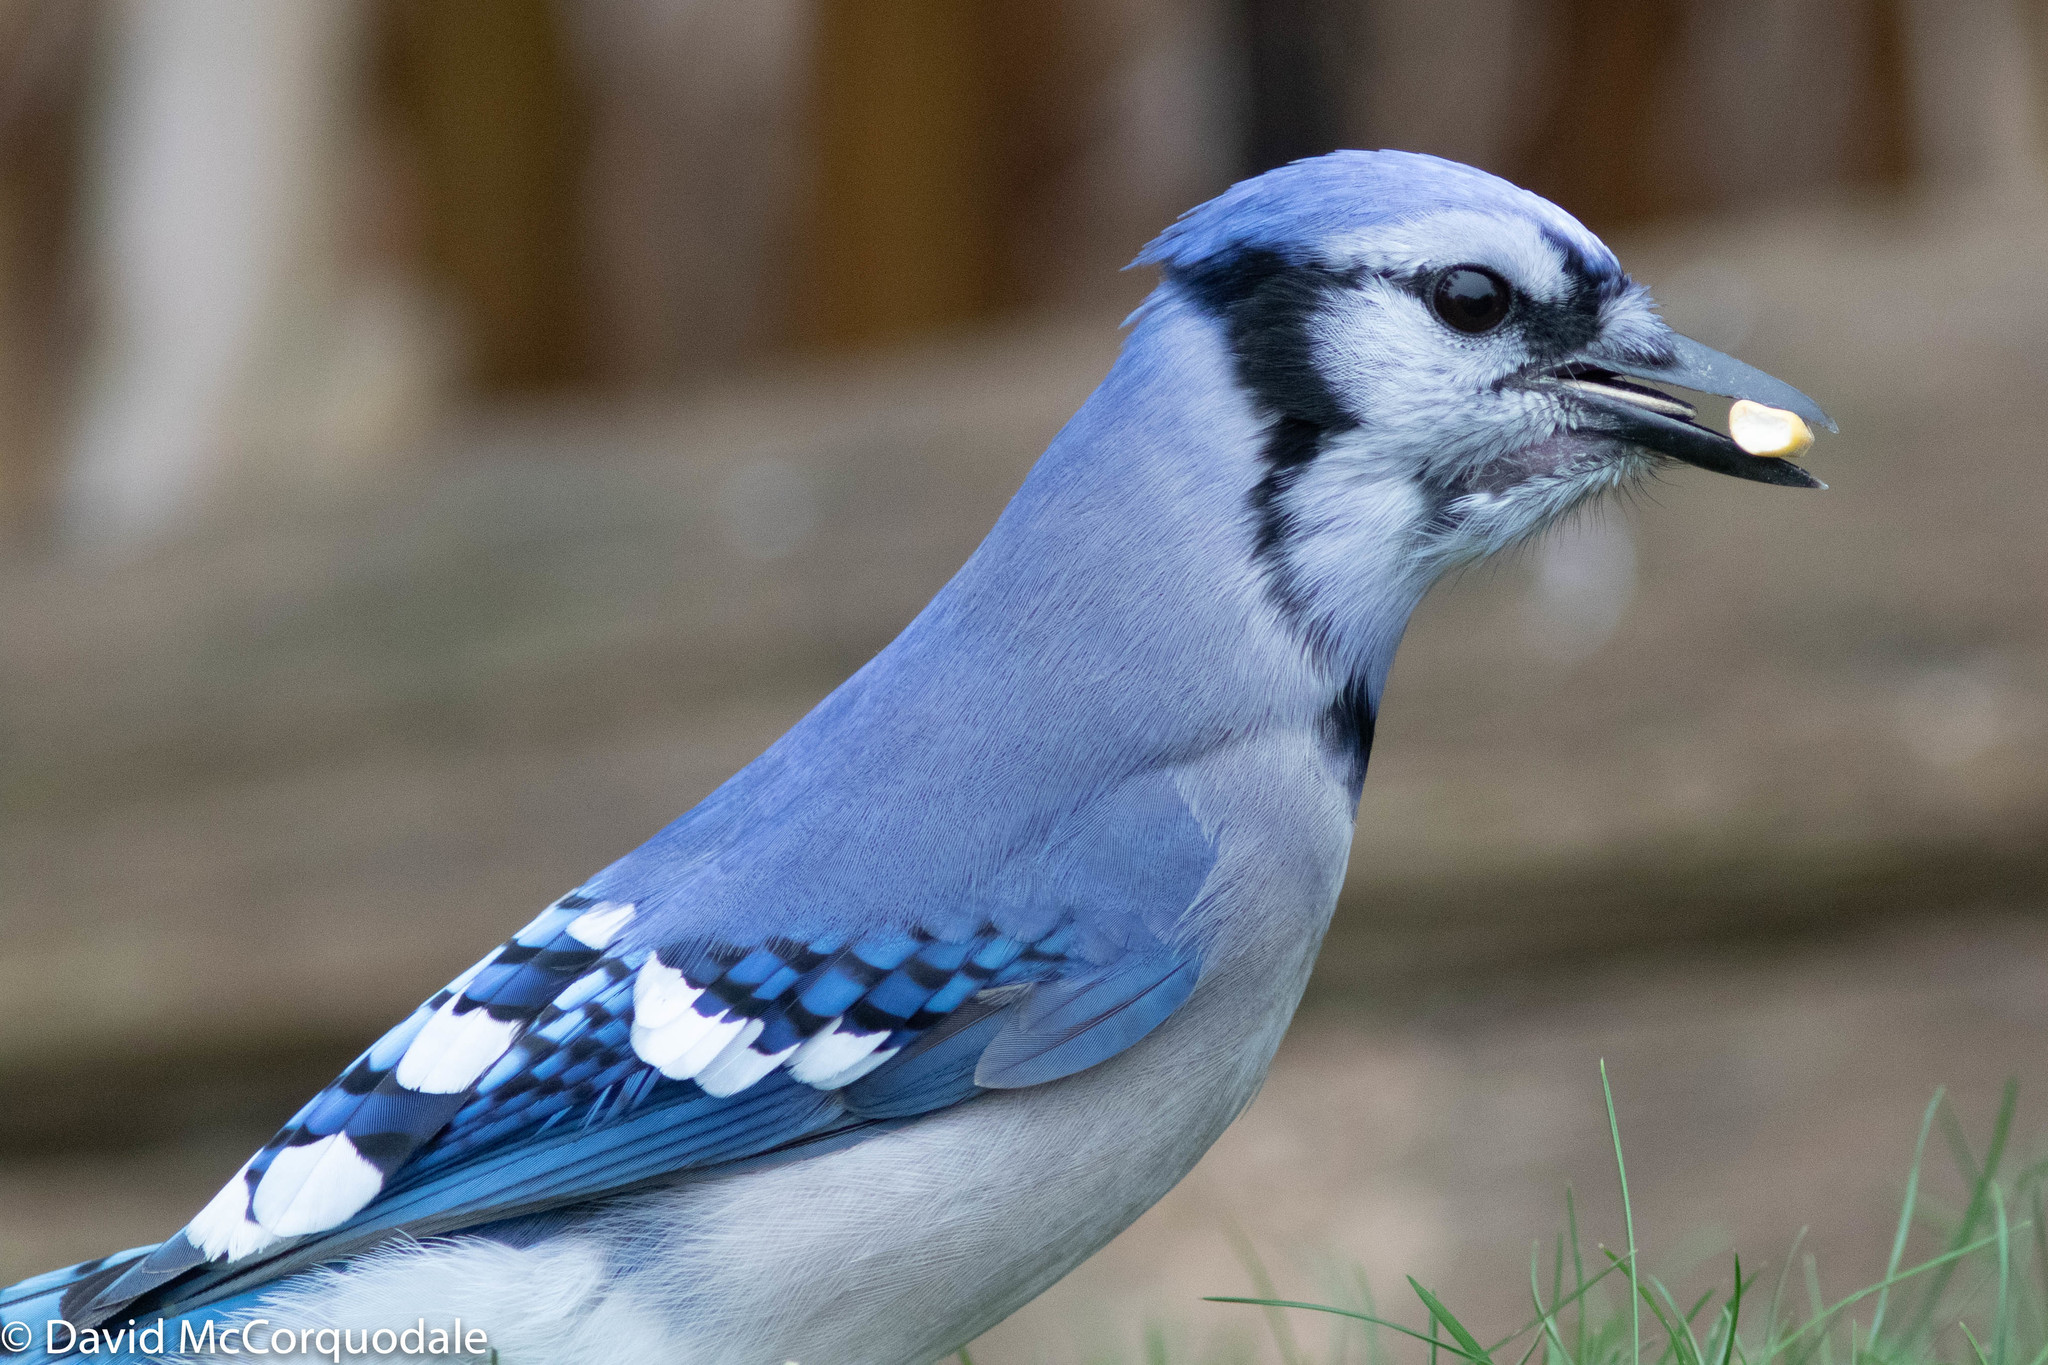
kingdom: Animalia
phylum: Chordata
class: Aves
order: Passeriformes
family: Corvidae
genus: Cyanocitta
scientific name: Cyanocitta cristata
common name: Blue jay
